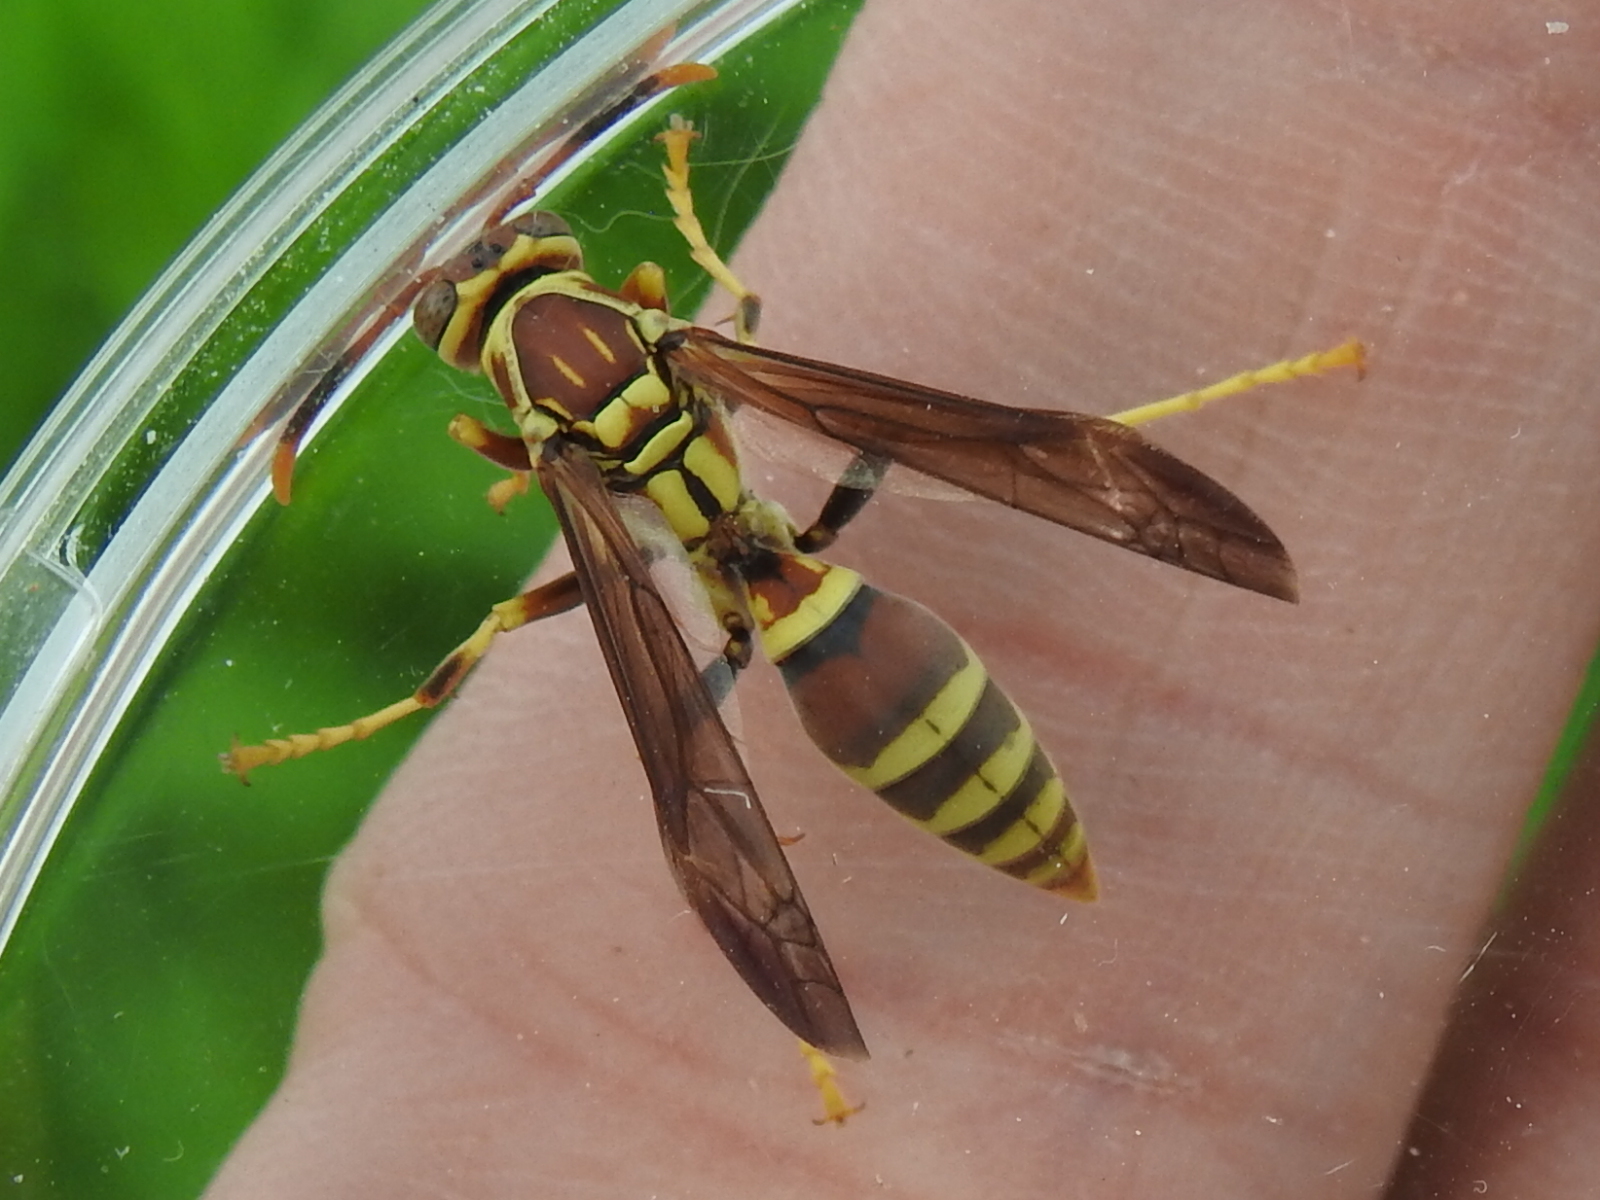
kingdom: Animalia
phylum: Arthropoda
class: Insecta
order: Hymenoptera
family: Eumenidae
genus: Polistes
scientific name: Polistes exclamans
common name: Paper wasp
